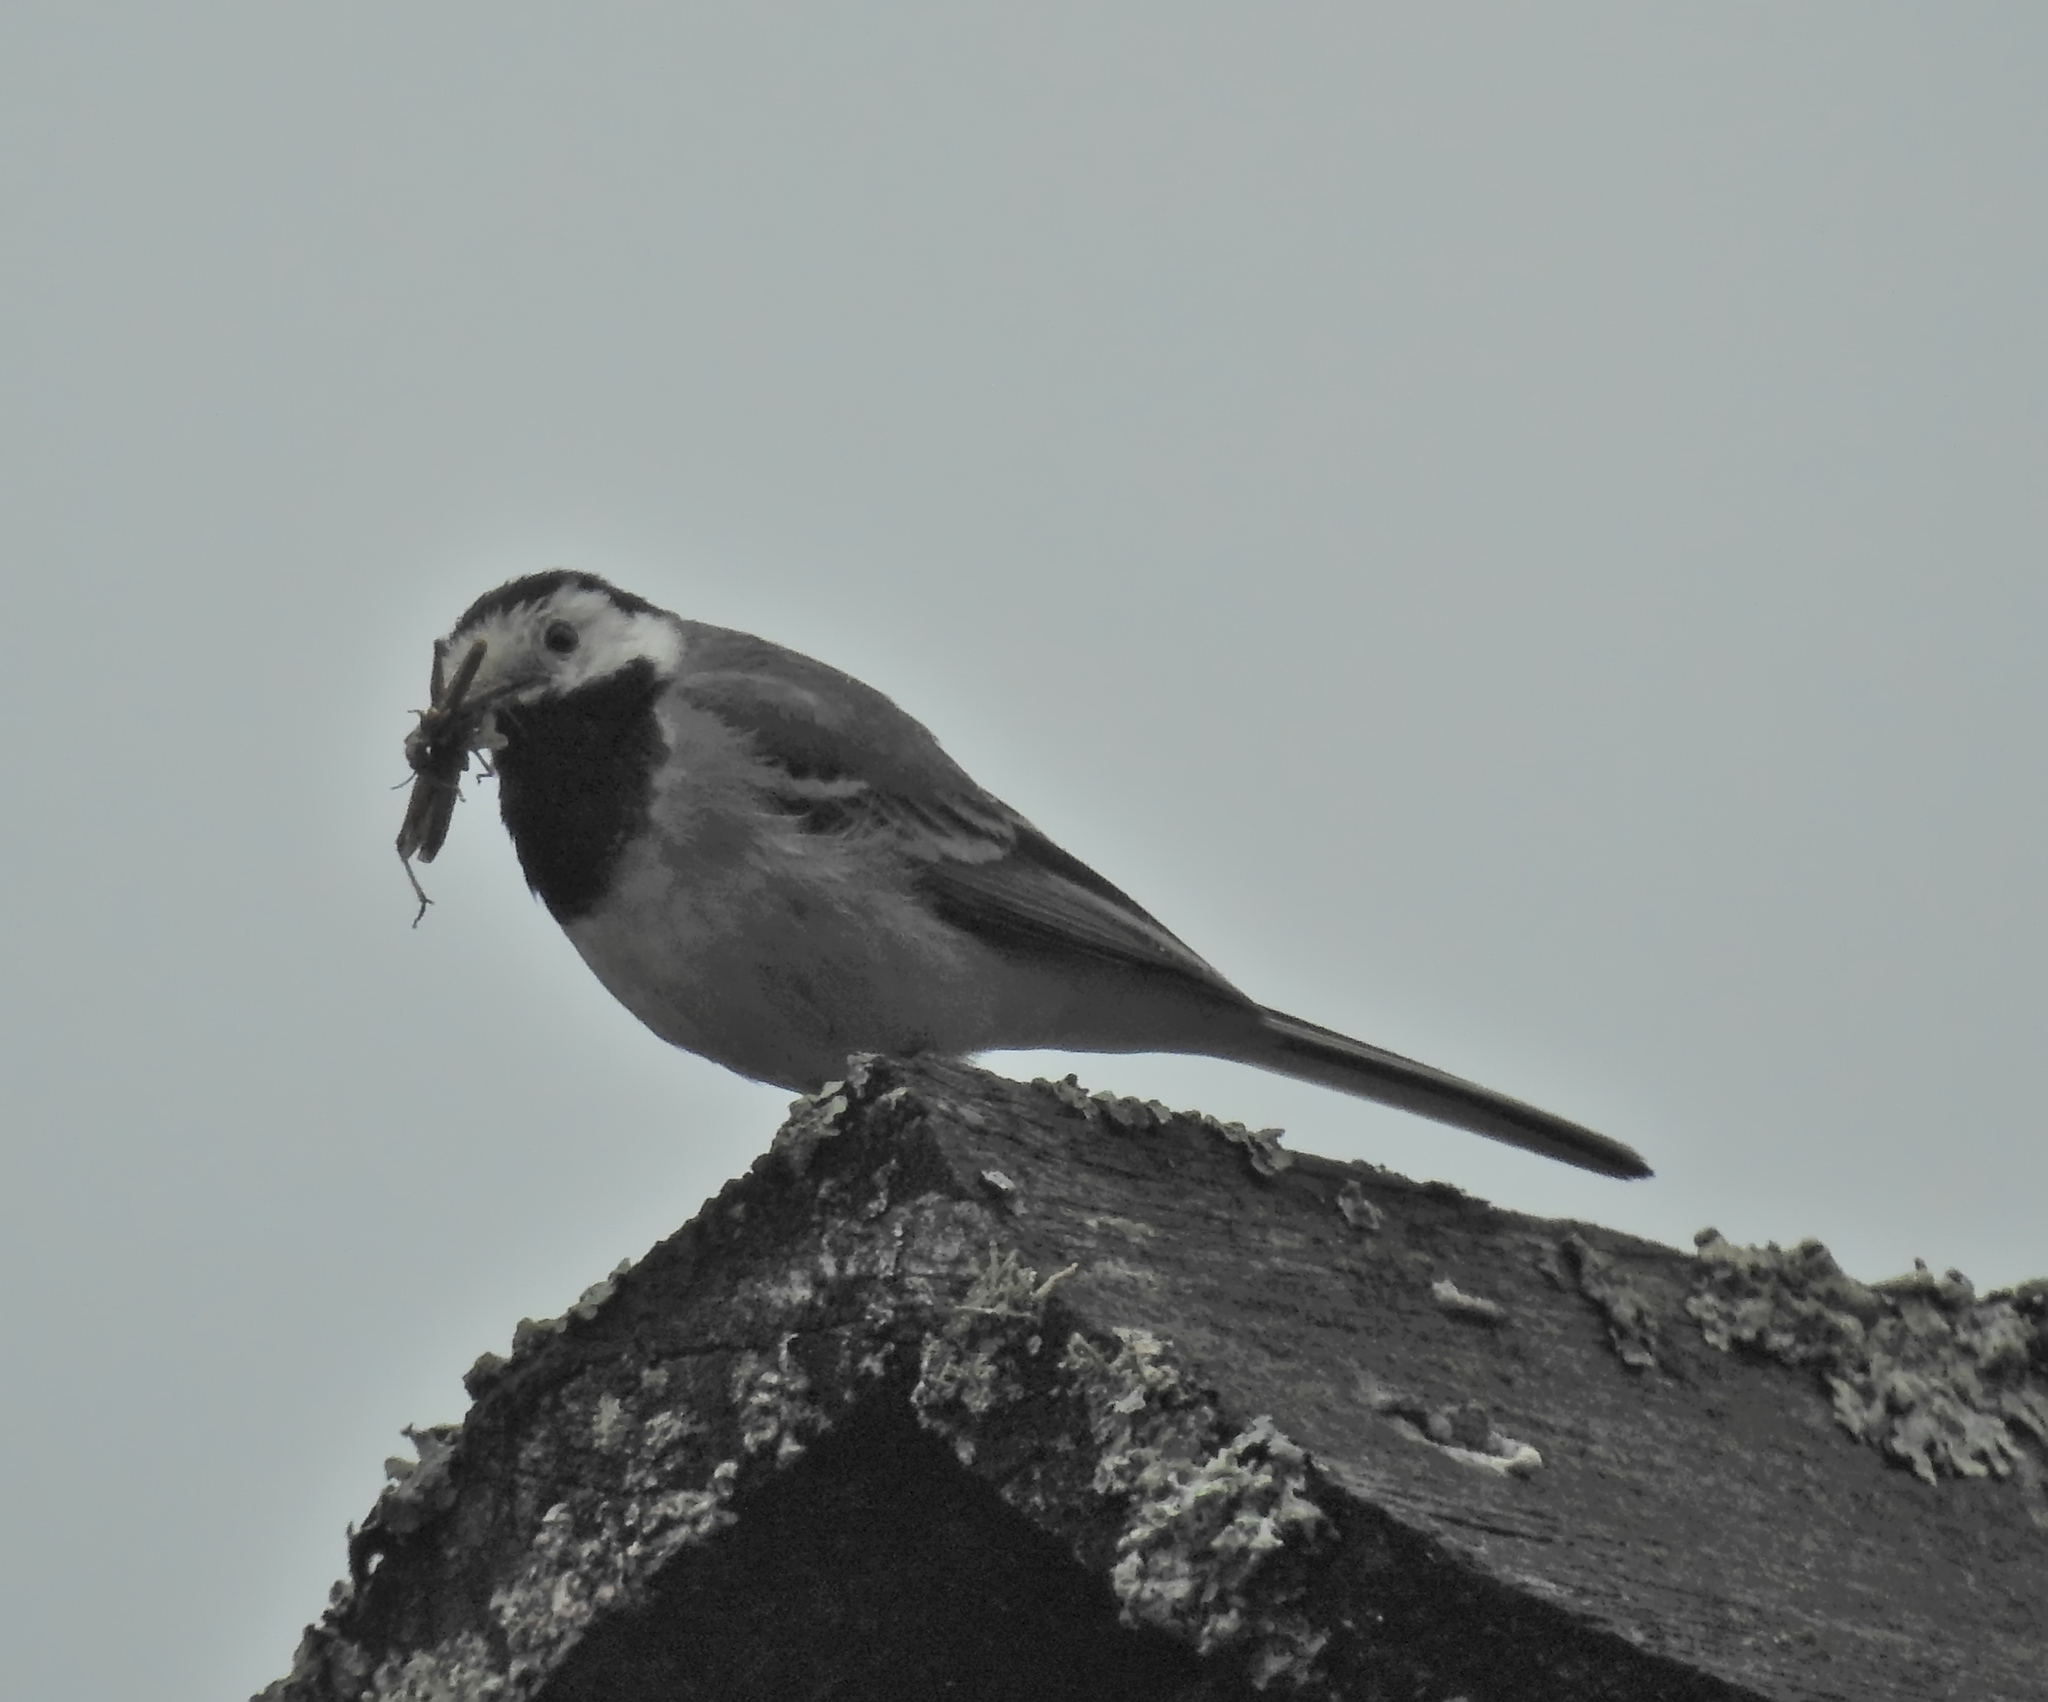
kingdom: Animalia
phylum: Chordata
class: Aves
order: Passeriformes
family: Motacillidae
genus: Motacilla
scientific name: Motacilla alba
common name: White wagtail
